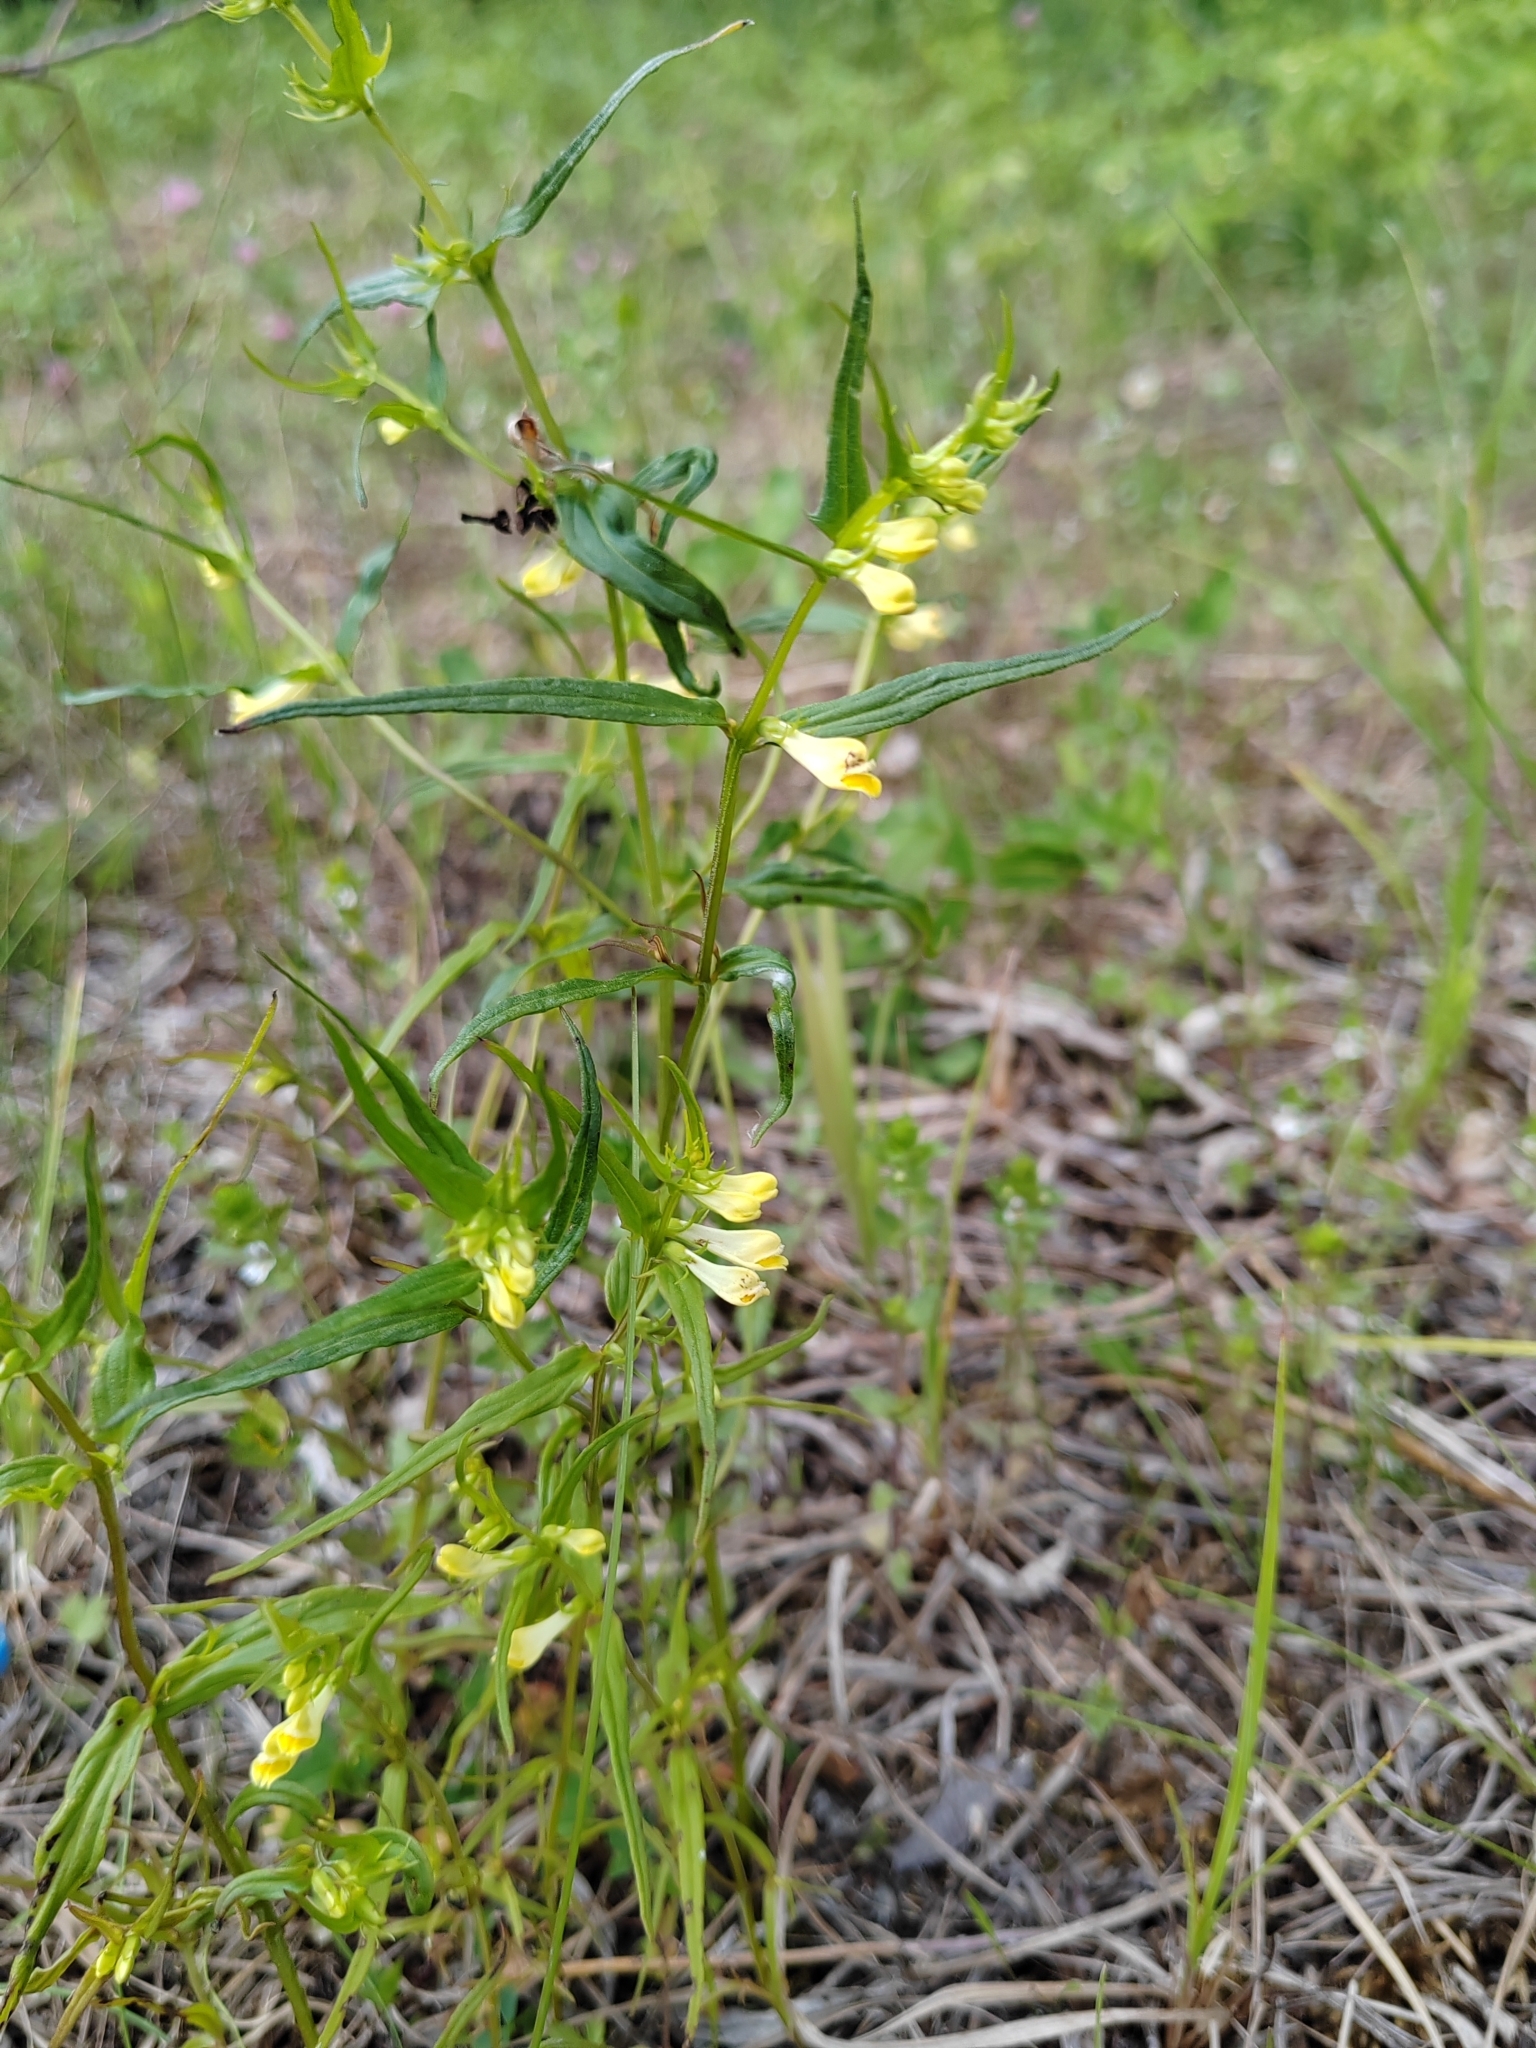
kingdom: Plantae
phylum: Tracheophyta
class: Magnoliopsida
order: Lamiales
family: Orobanchaceae
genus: Melampyrum
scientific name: Melampyrum pratense
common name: Common cow-wheat
